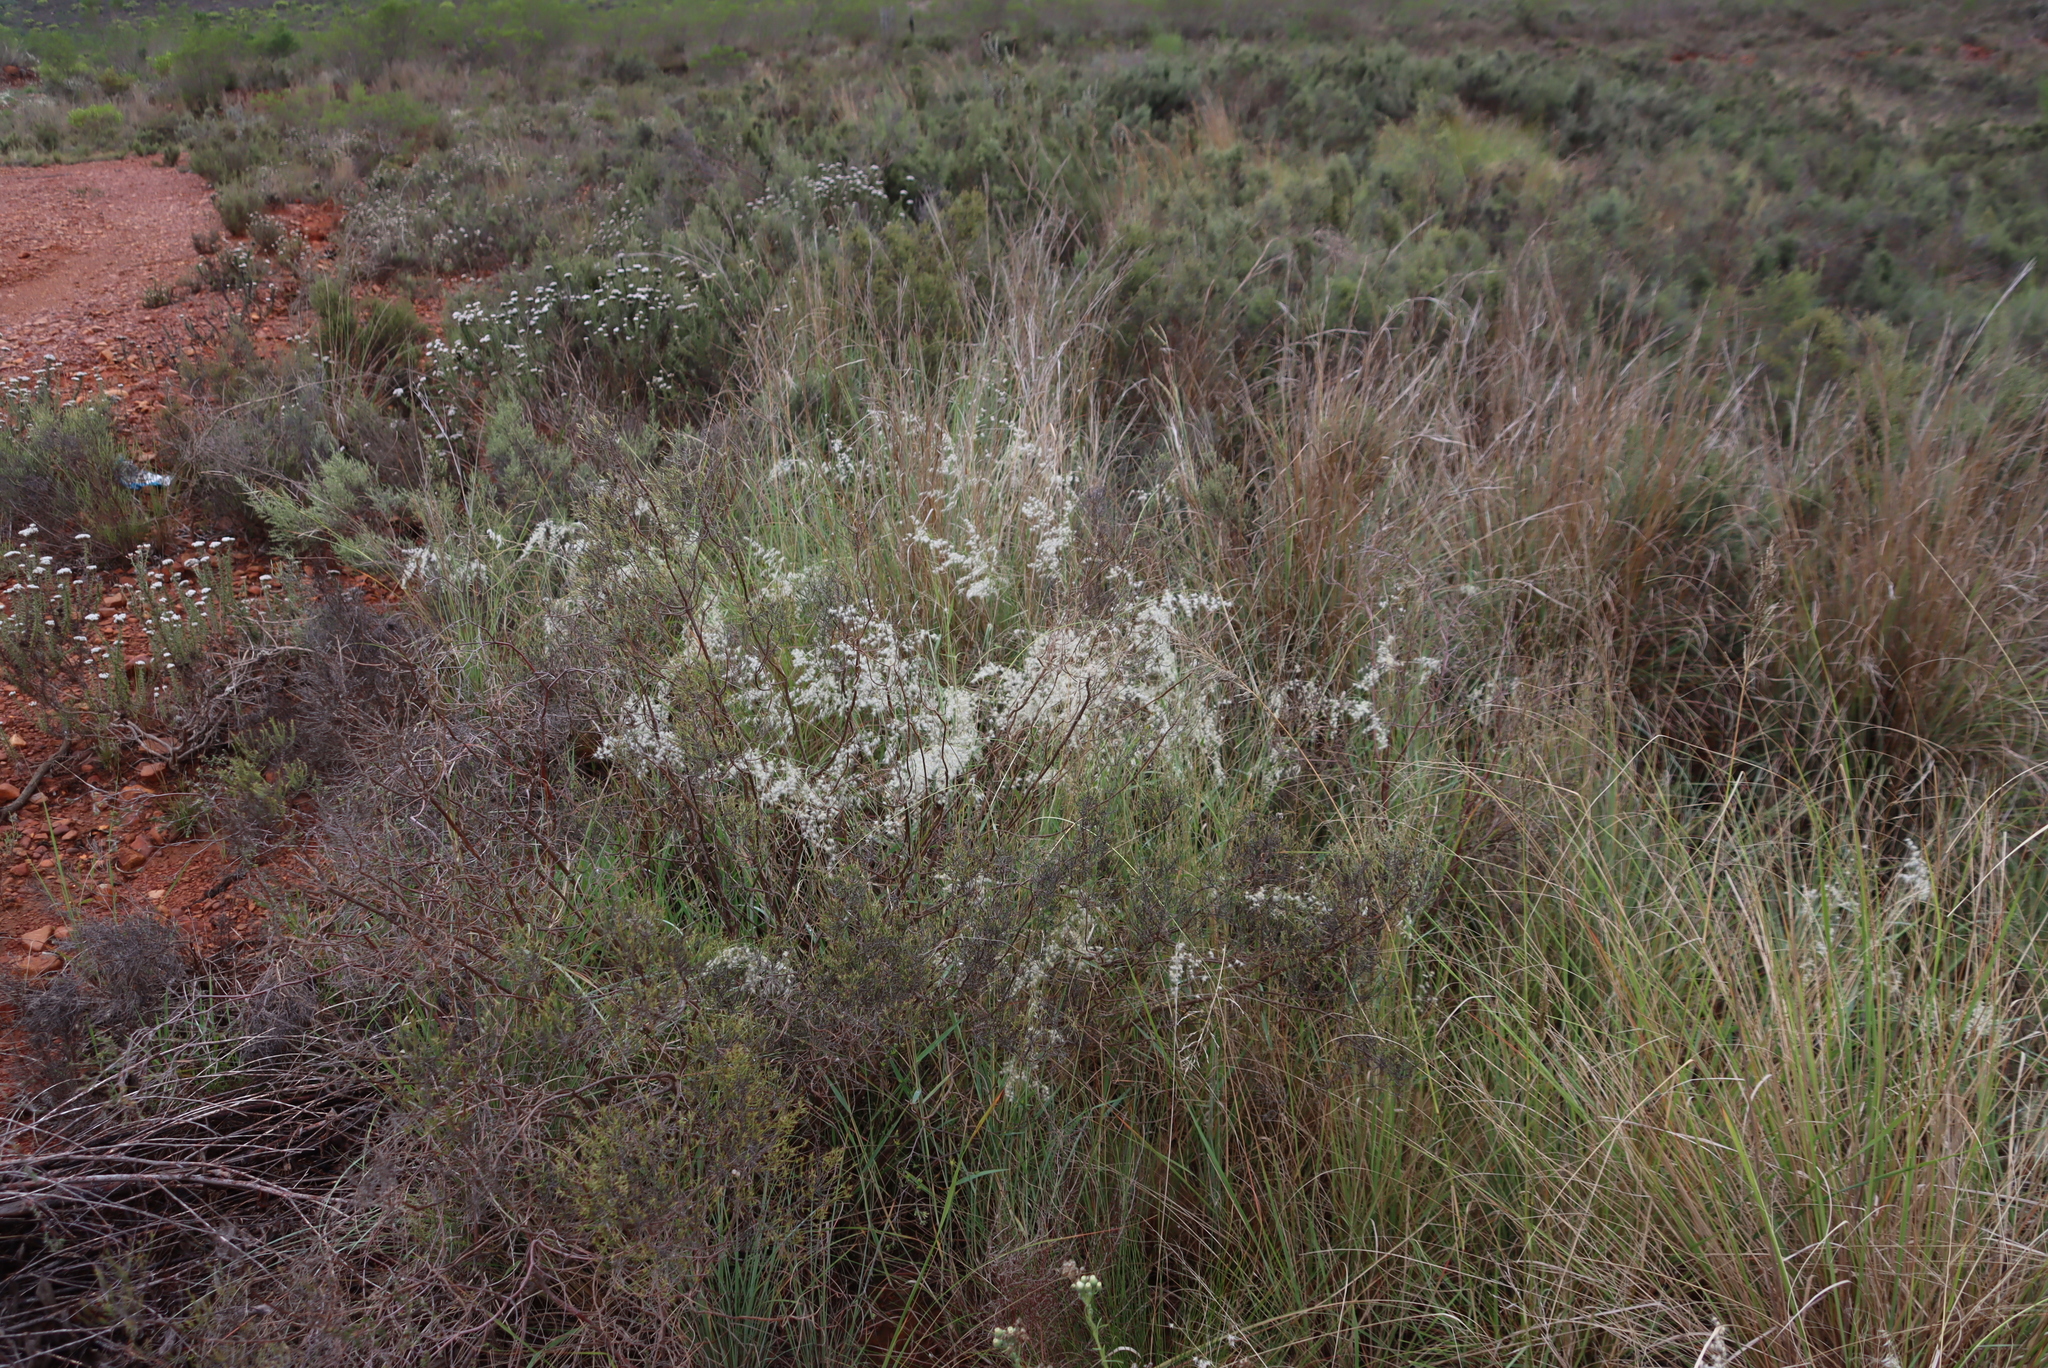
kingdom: Plantae
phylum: Tracheophyta
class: Liliopsida
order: Poales
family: Poaceae
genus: Melinis
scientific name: Melinis repens
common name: Rose natal grass
